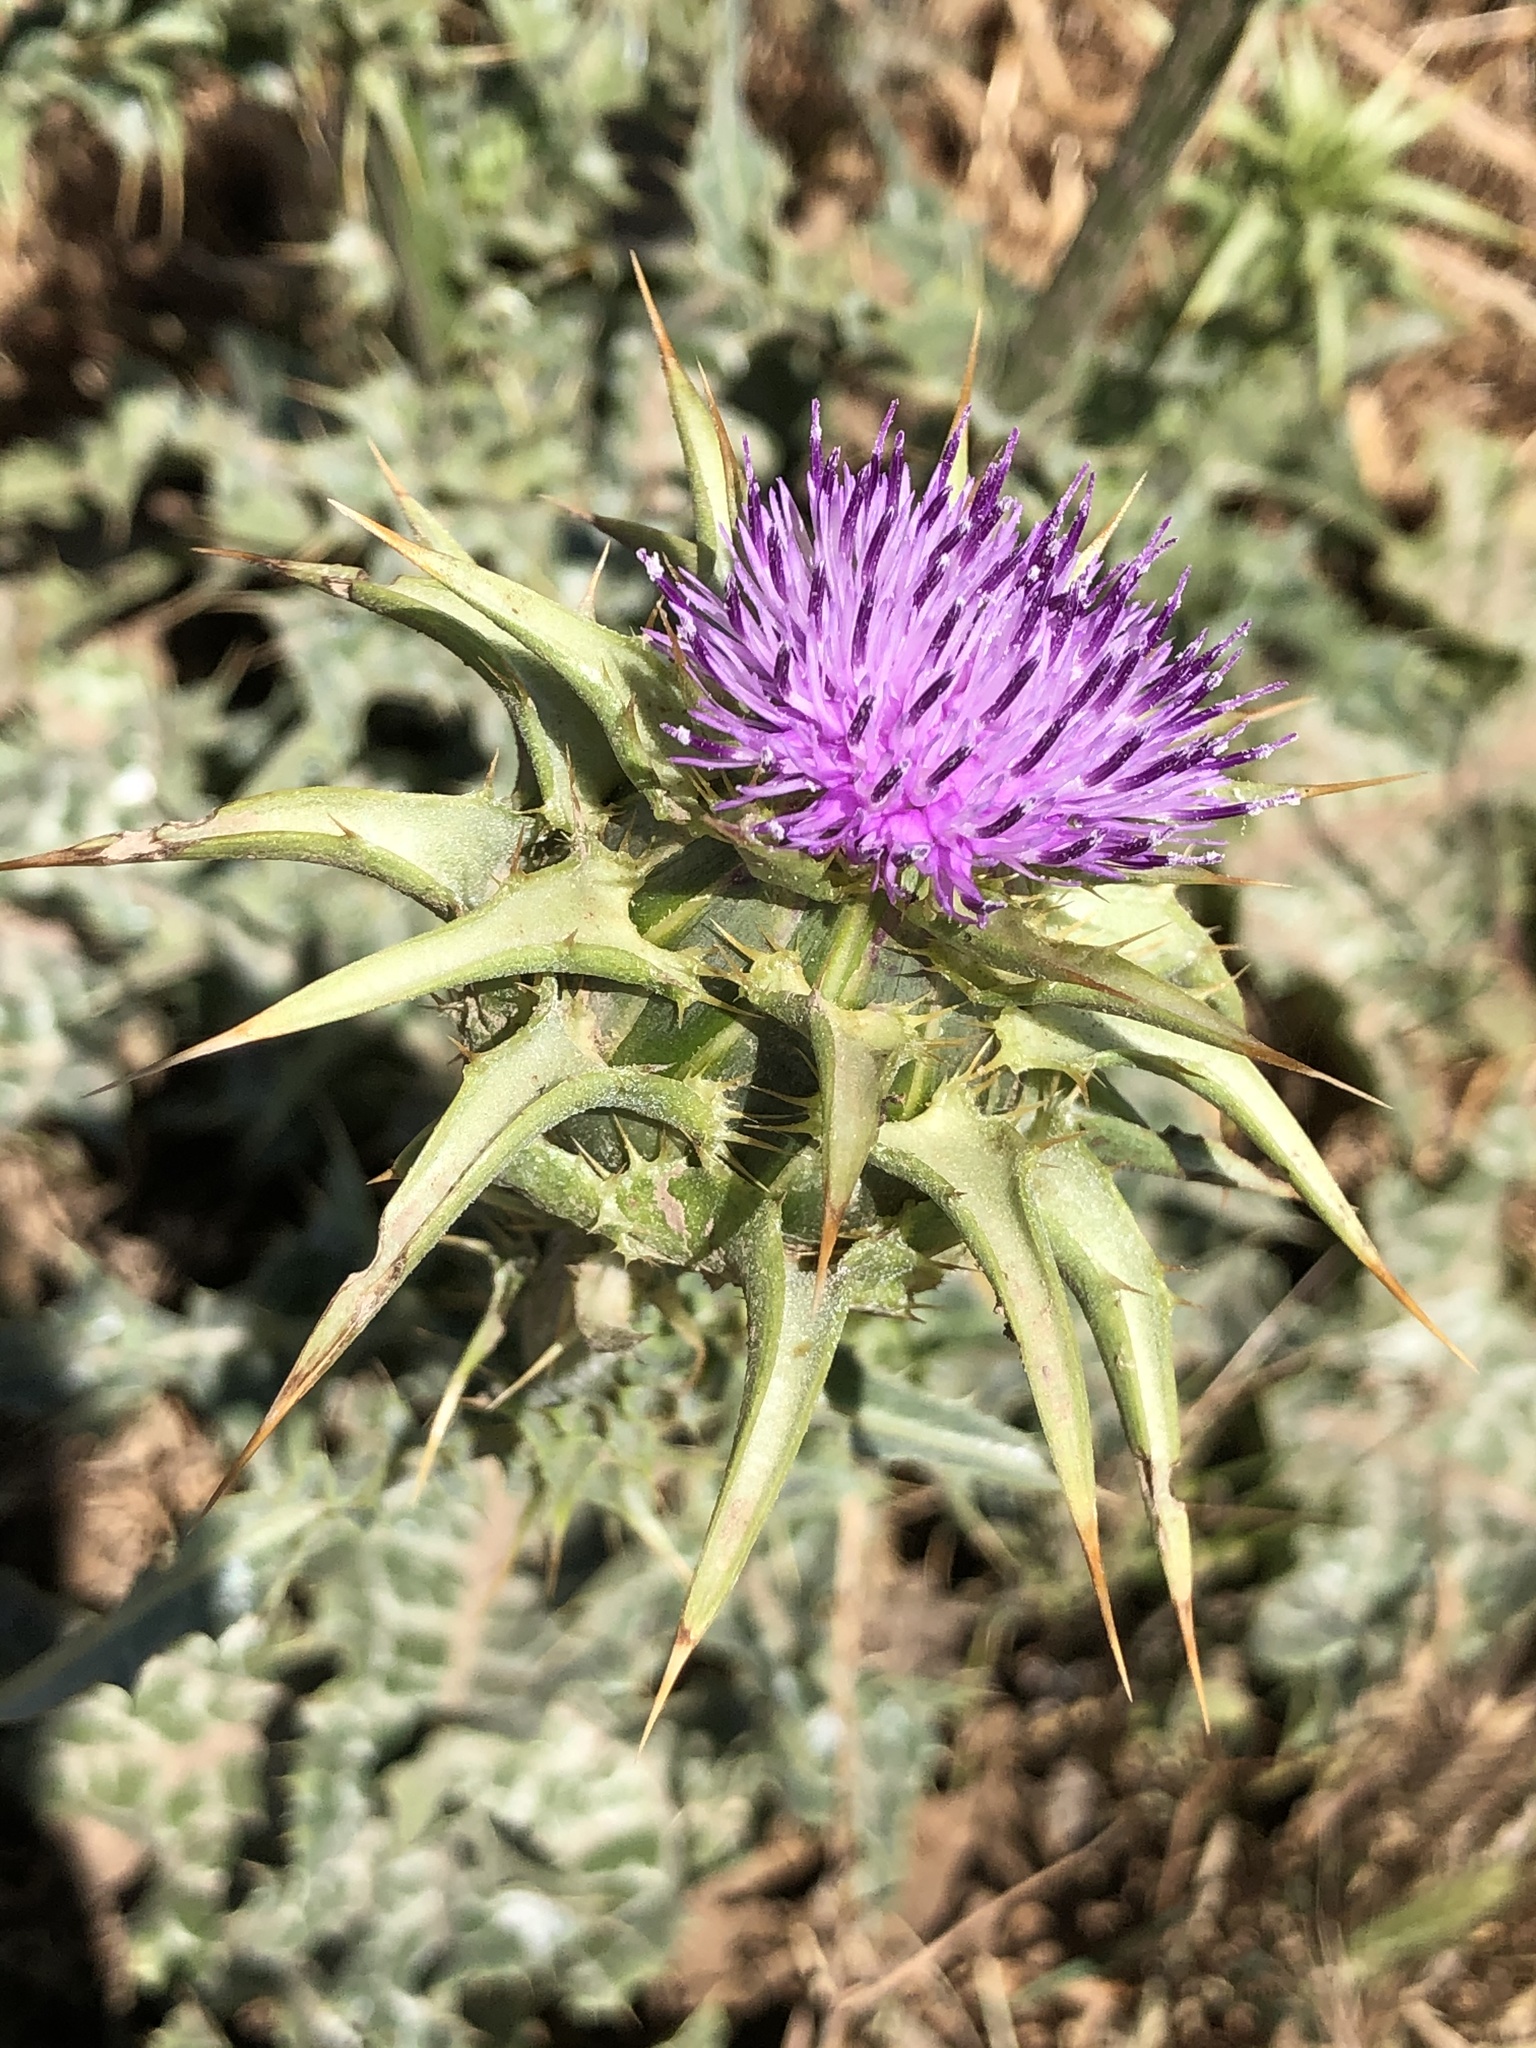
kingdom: Plantae
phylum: Tracheophyta
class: Magnoliopsida
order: Asterales
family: Asteraceae
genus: Silybum
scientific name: Silybum marianum
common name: Milk thistle
